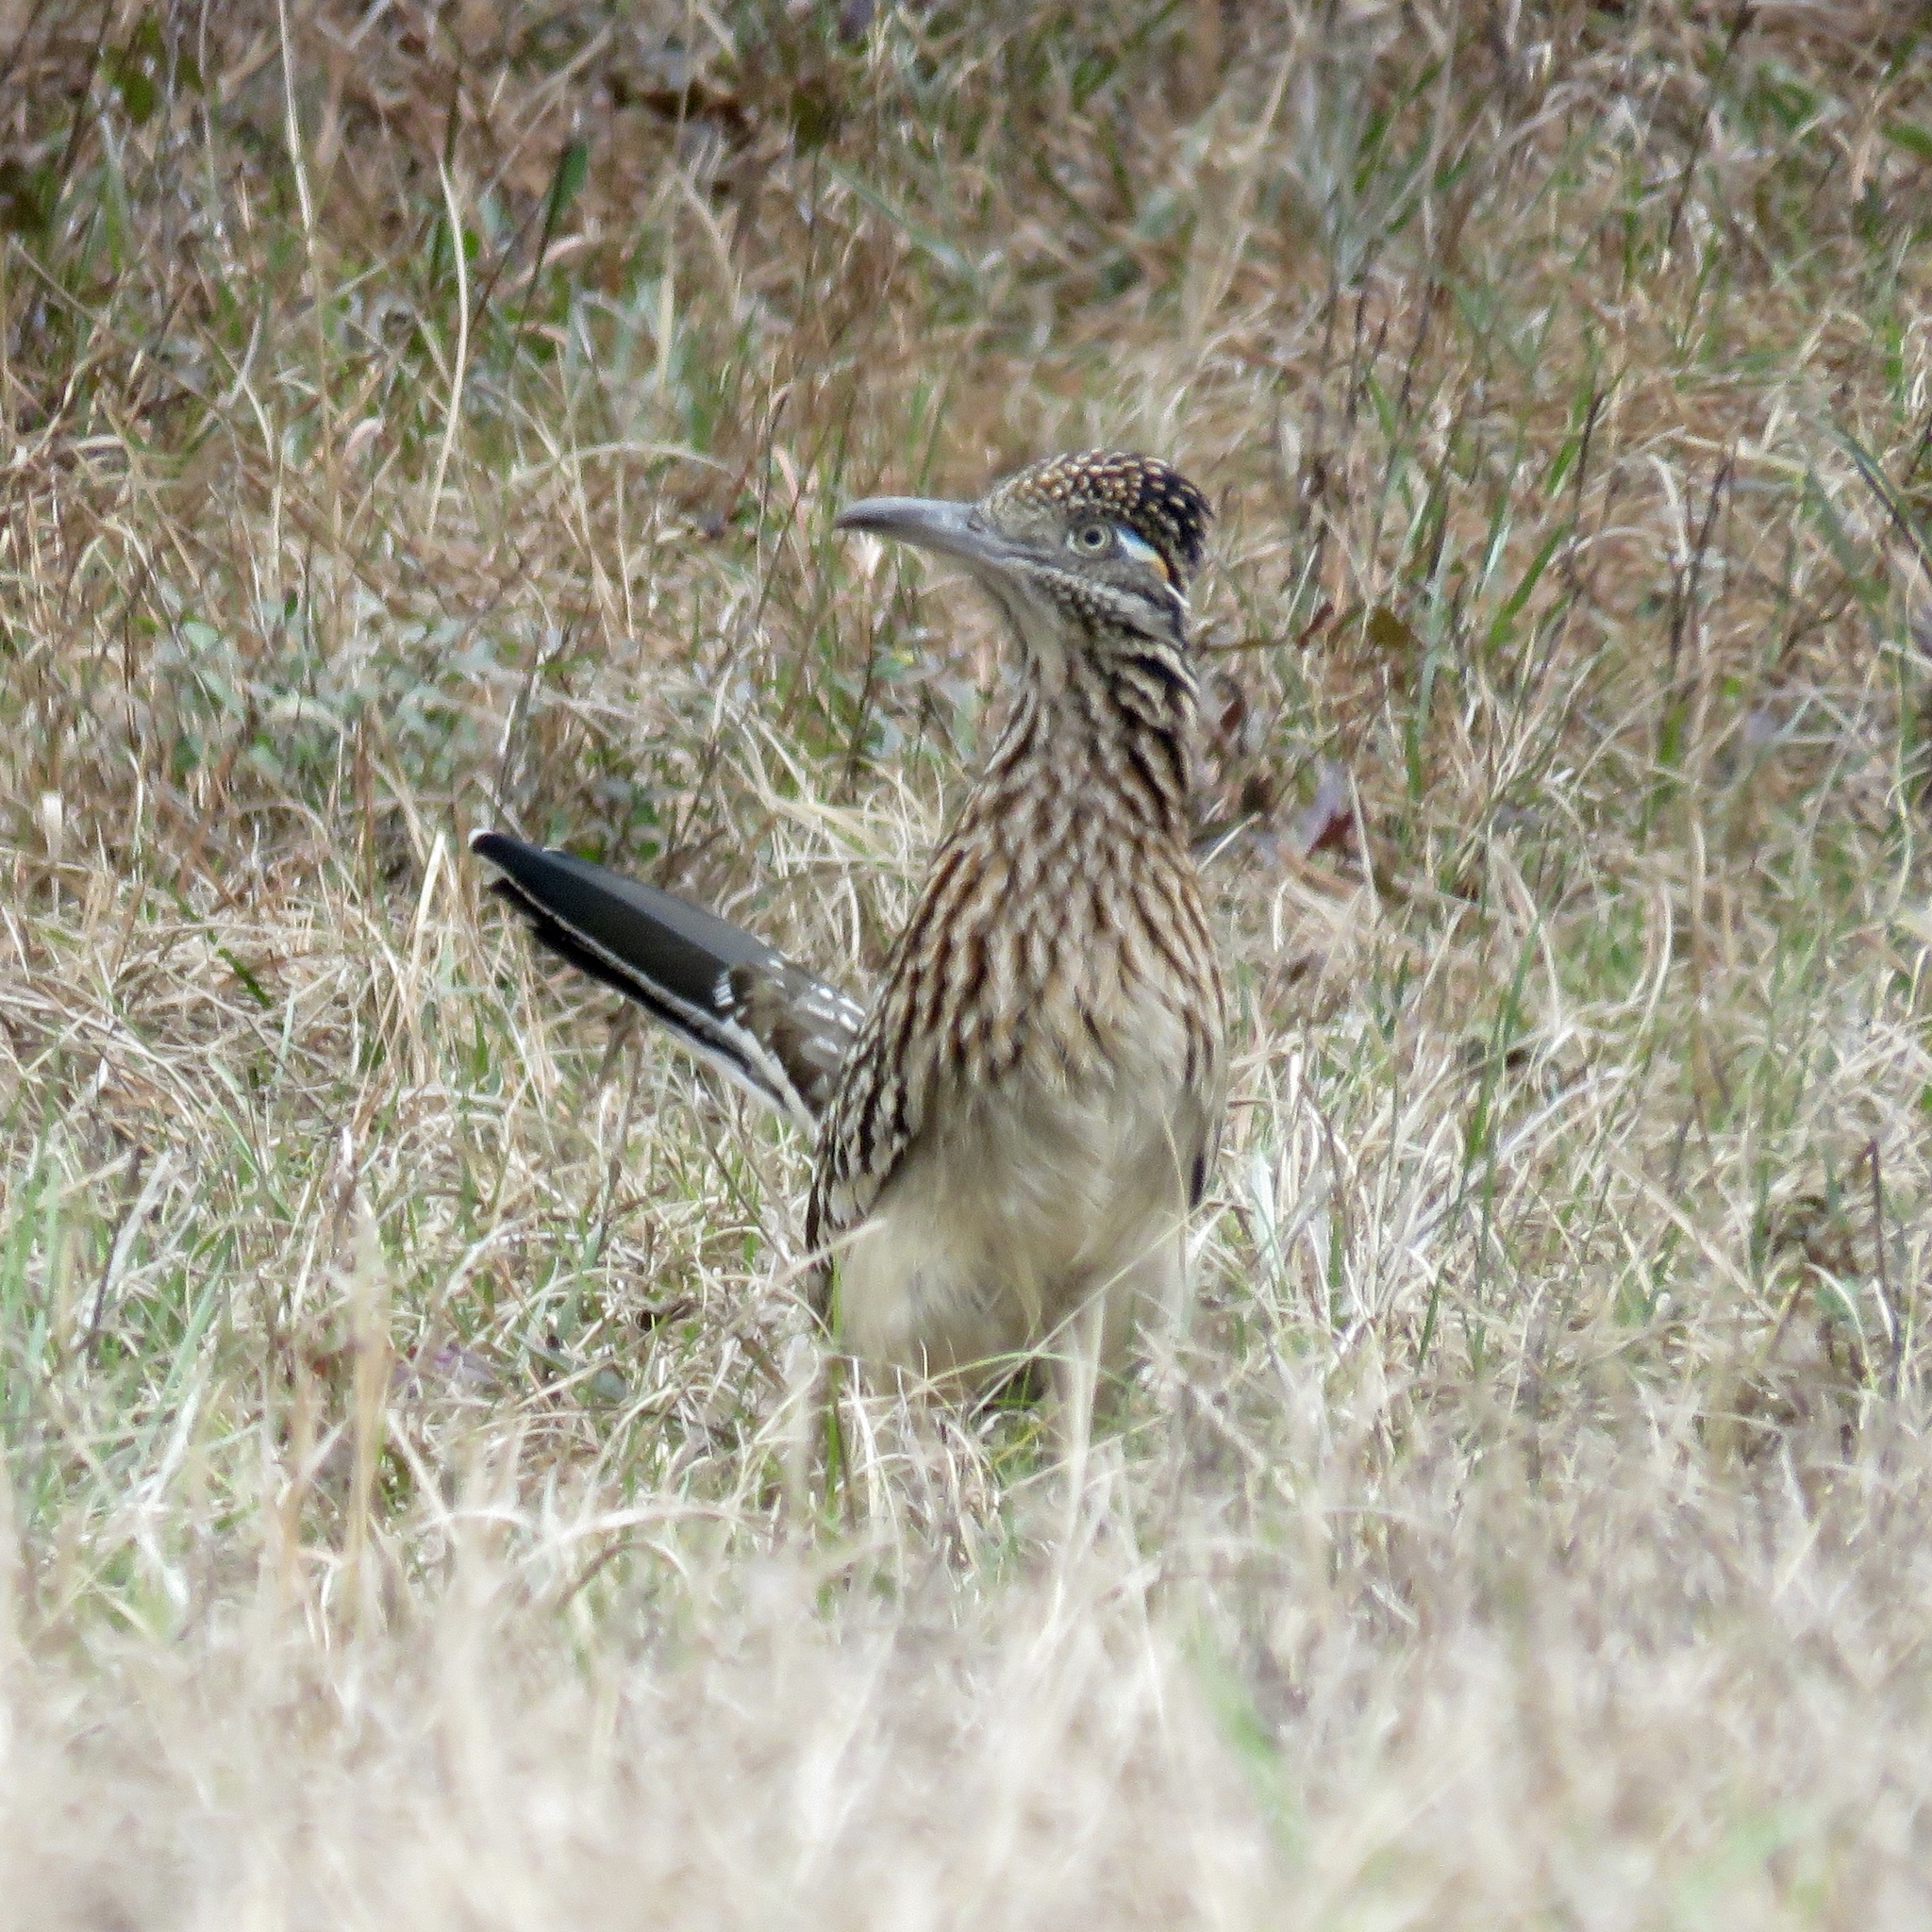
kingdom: Animalia
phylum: Chordata
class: Aves
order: Cuculiformes
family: Cuculidae
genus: Geococcyx
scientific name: Geococcyx californianus
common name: Greater roadrunner
